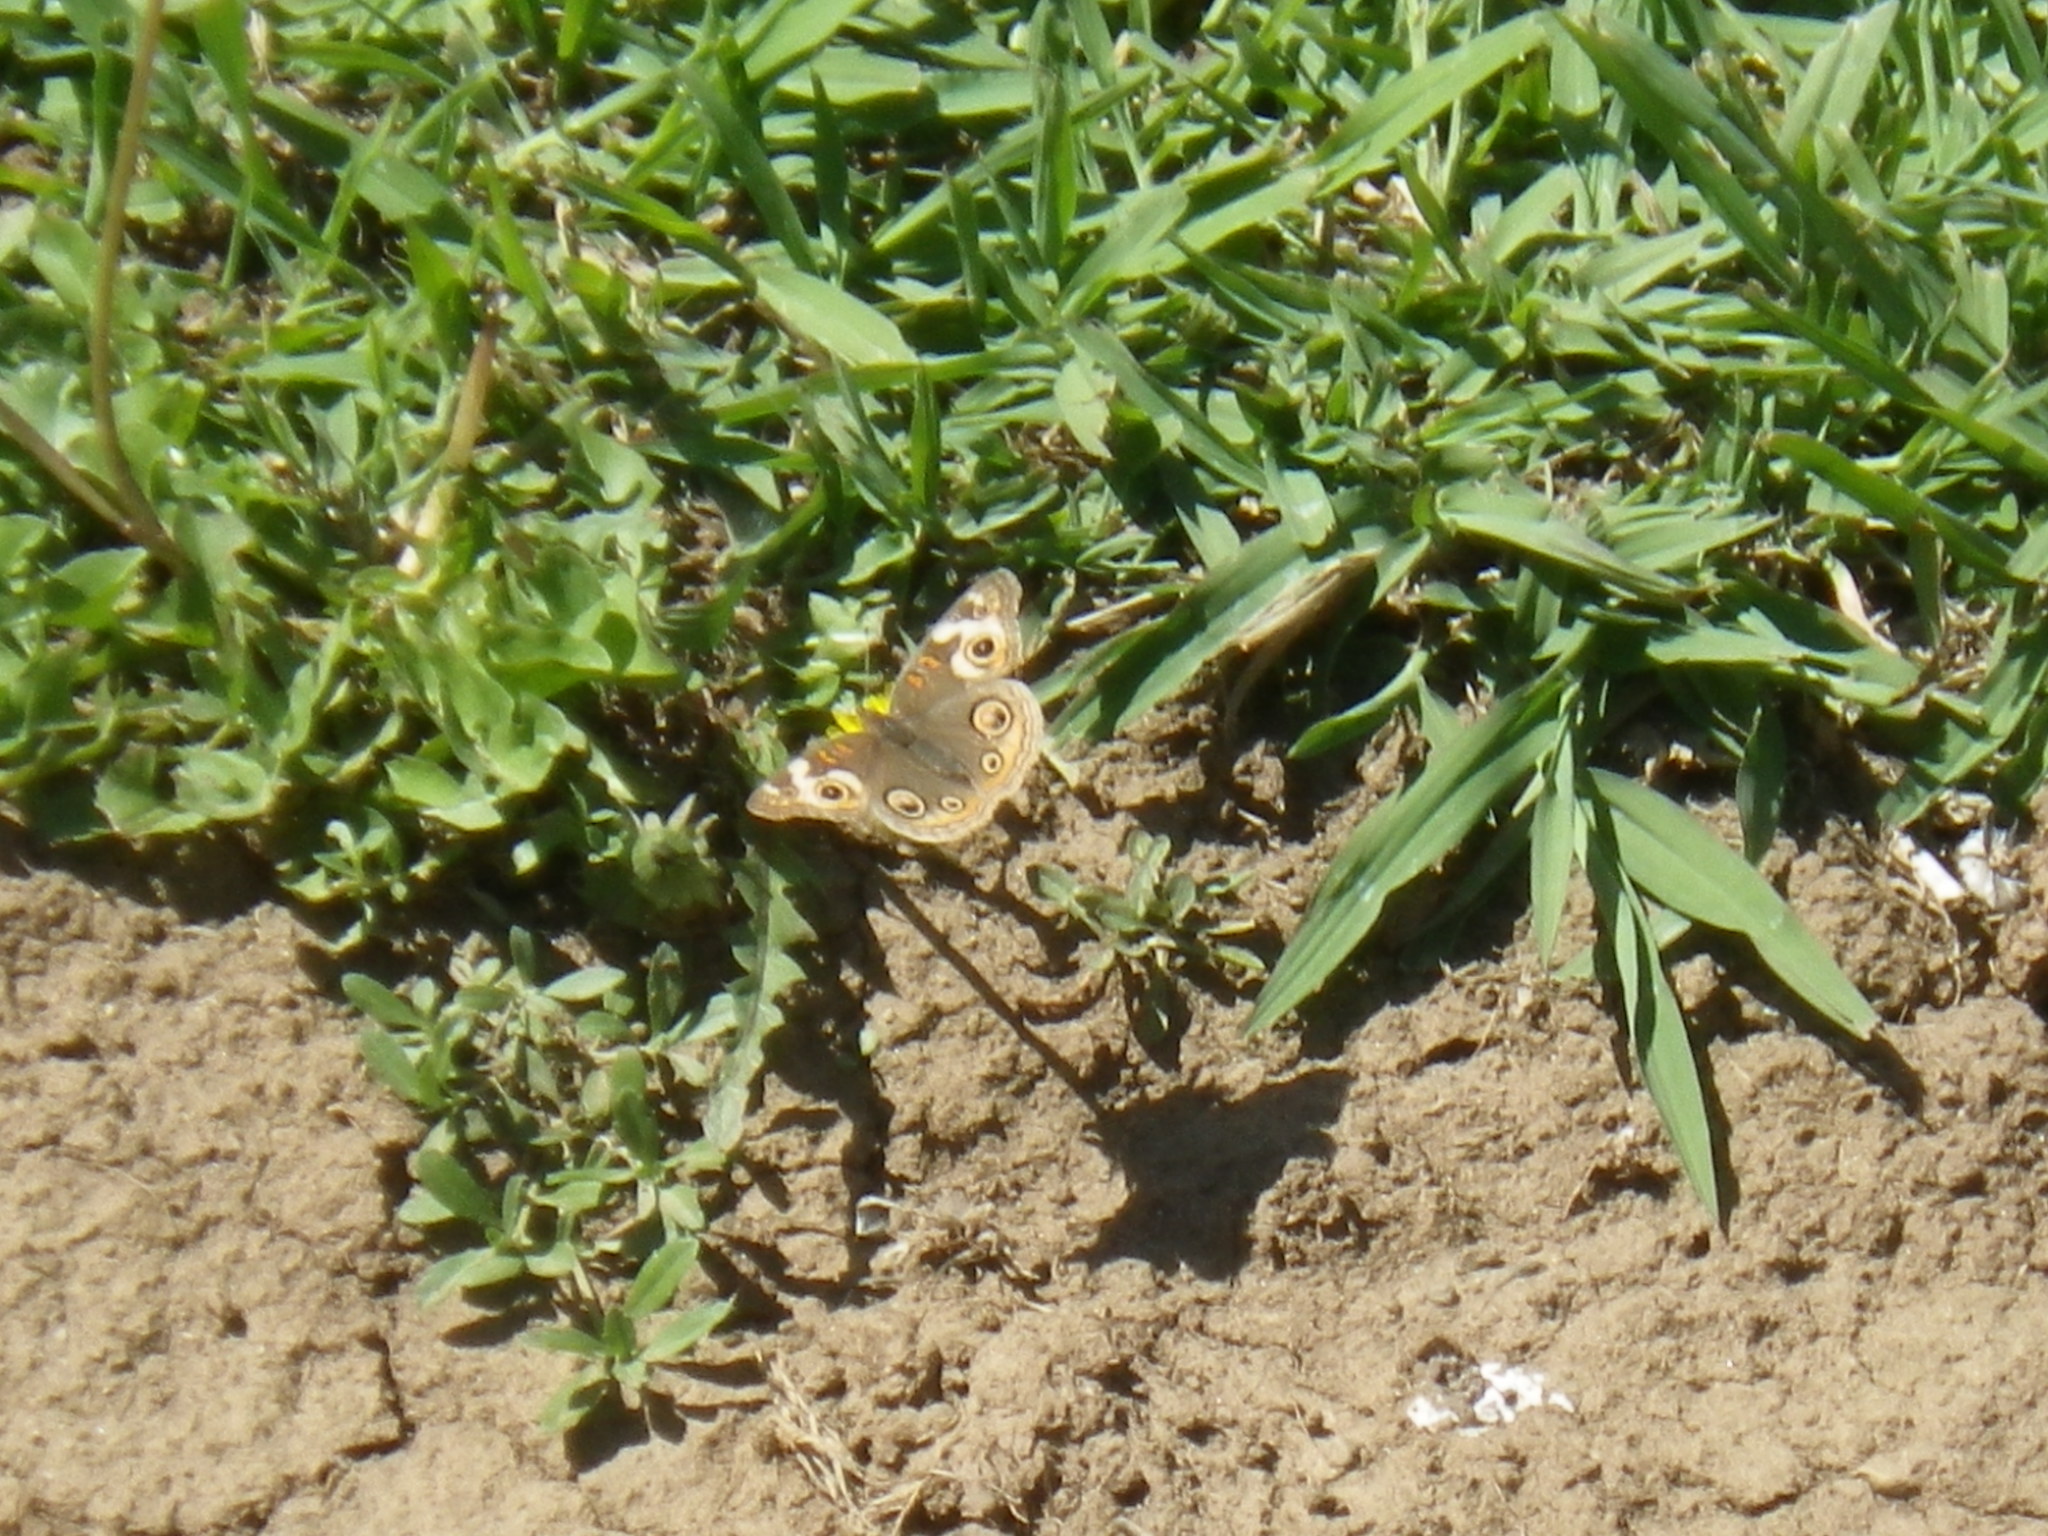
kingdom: Animalia
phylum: Arthropoda
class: Insecta
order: Lepidoptera
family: Nymphalidae
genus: Junonia
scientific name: Junonia grisea
